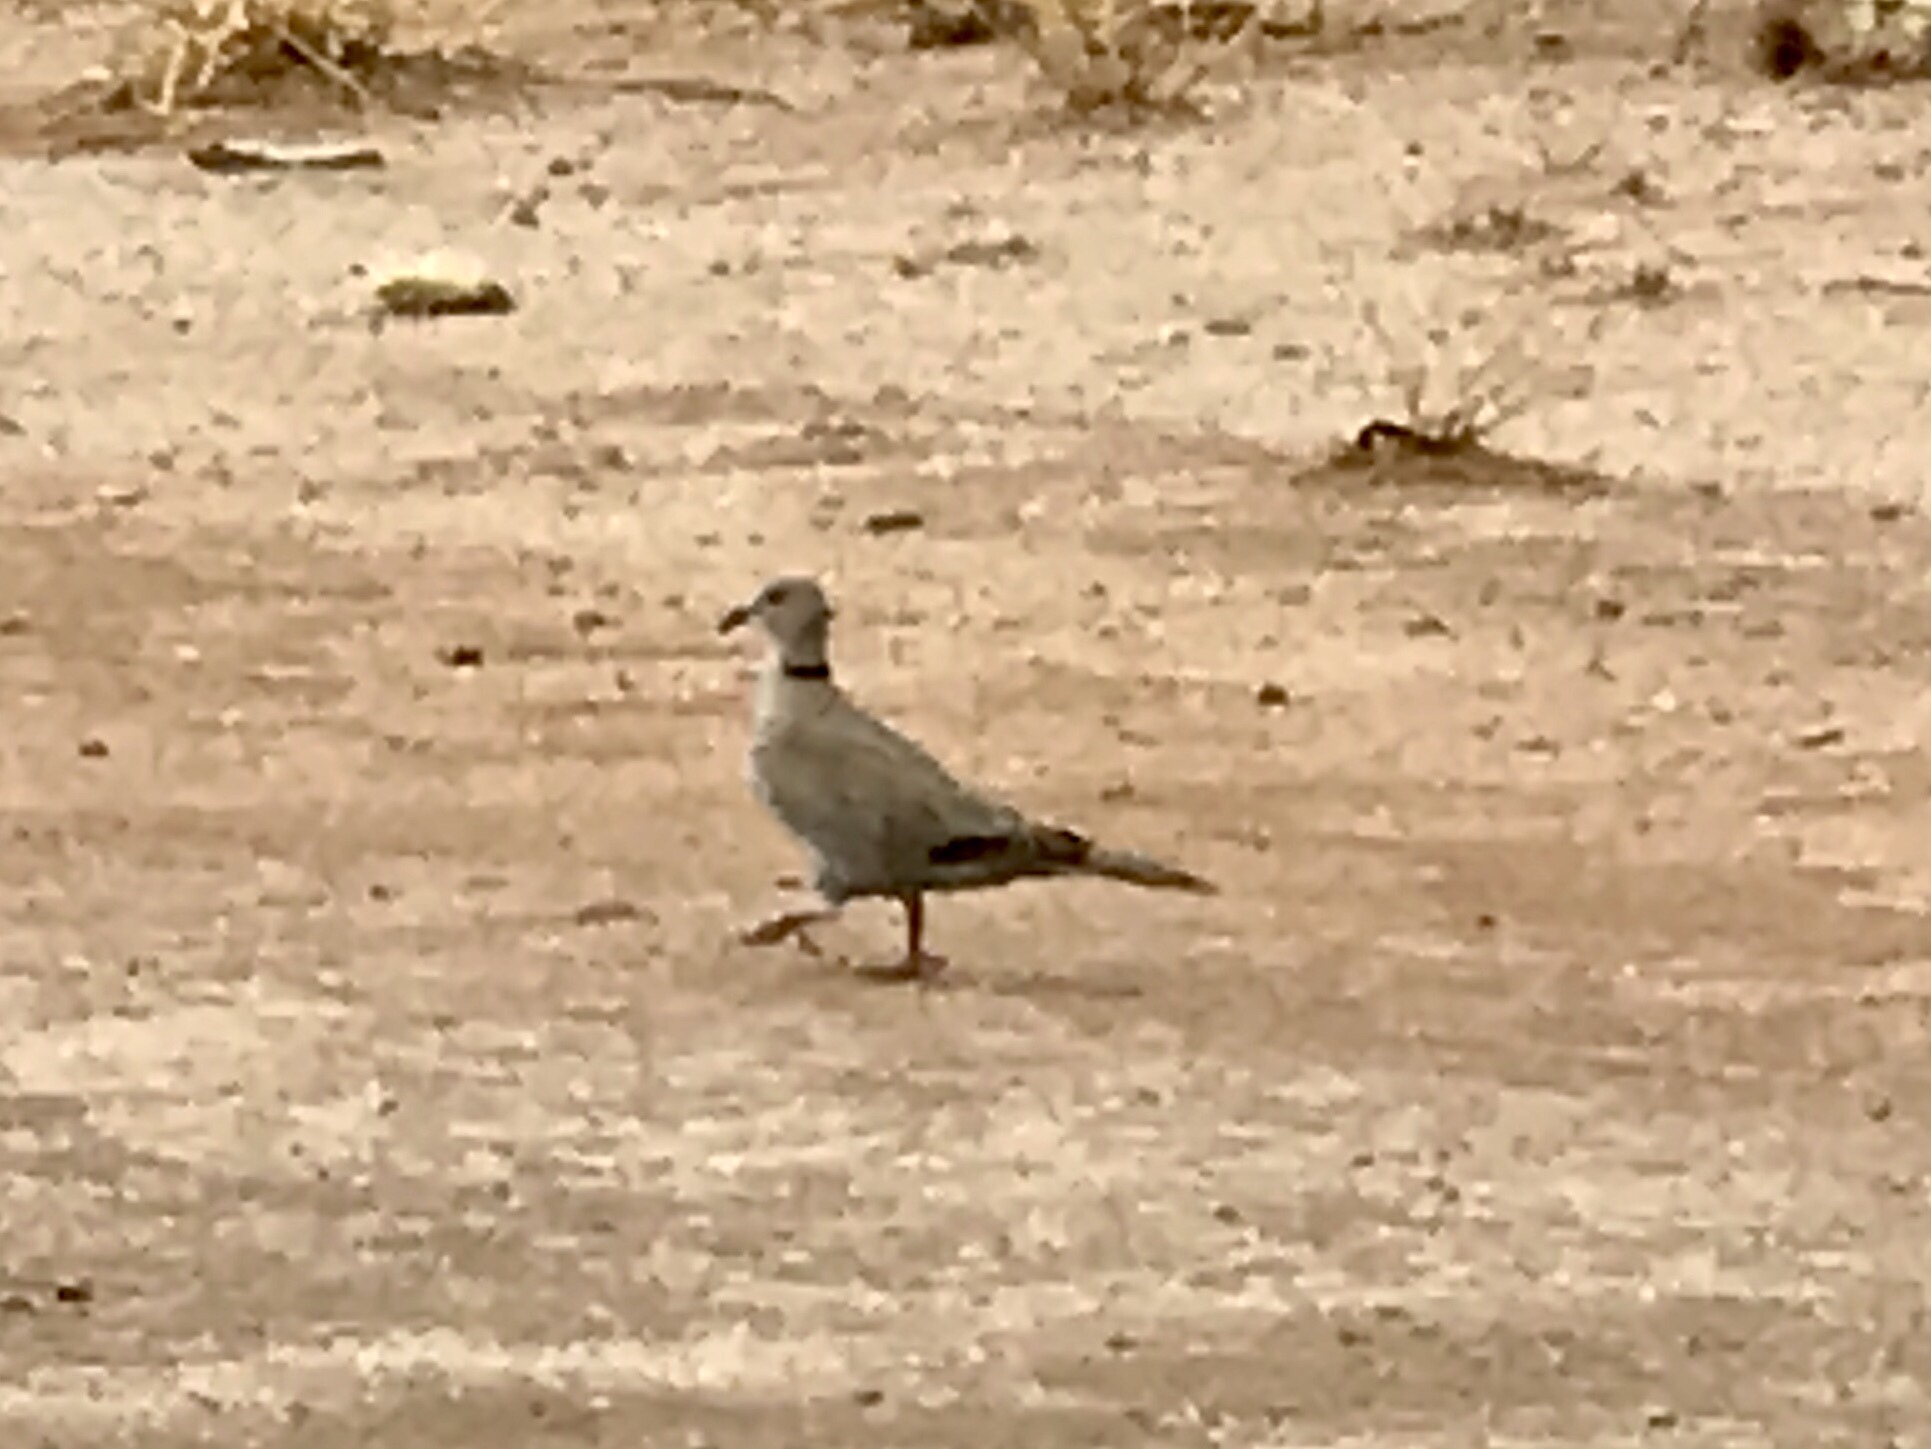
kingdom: Animalia
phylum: Chordata
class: Aves
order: Columbiformes
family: Columbidae
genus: Streptopelia
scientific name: Streptopelia decaocto
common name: Eurasian collared dove
